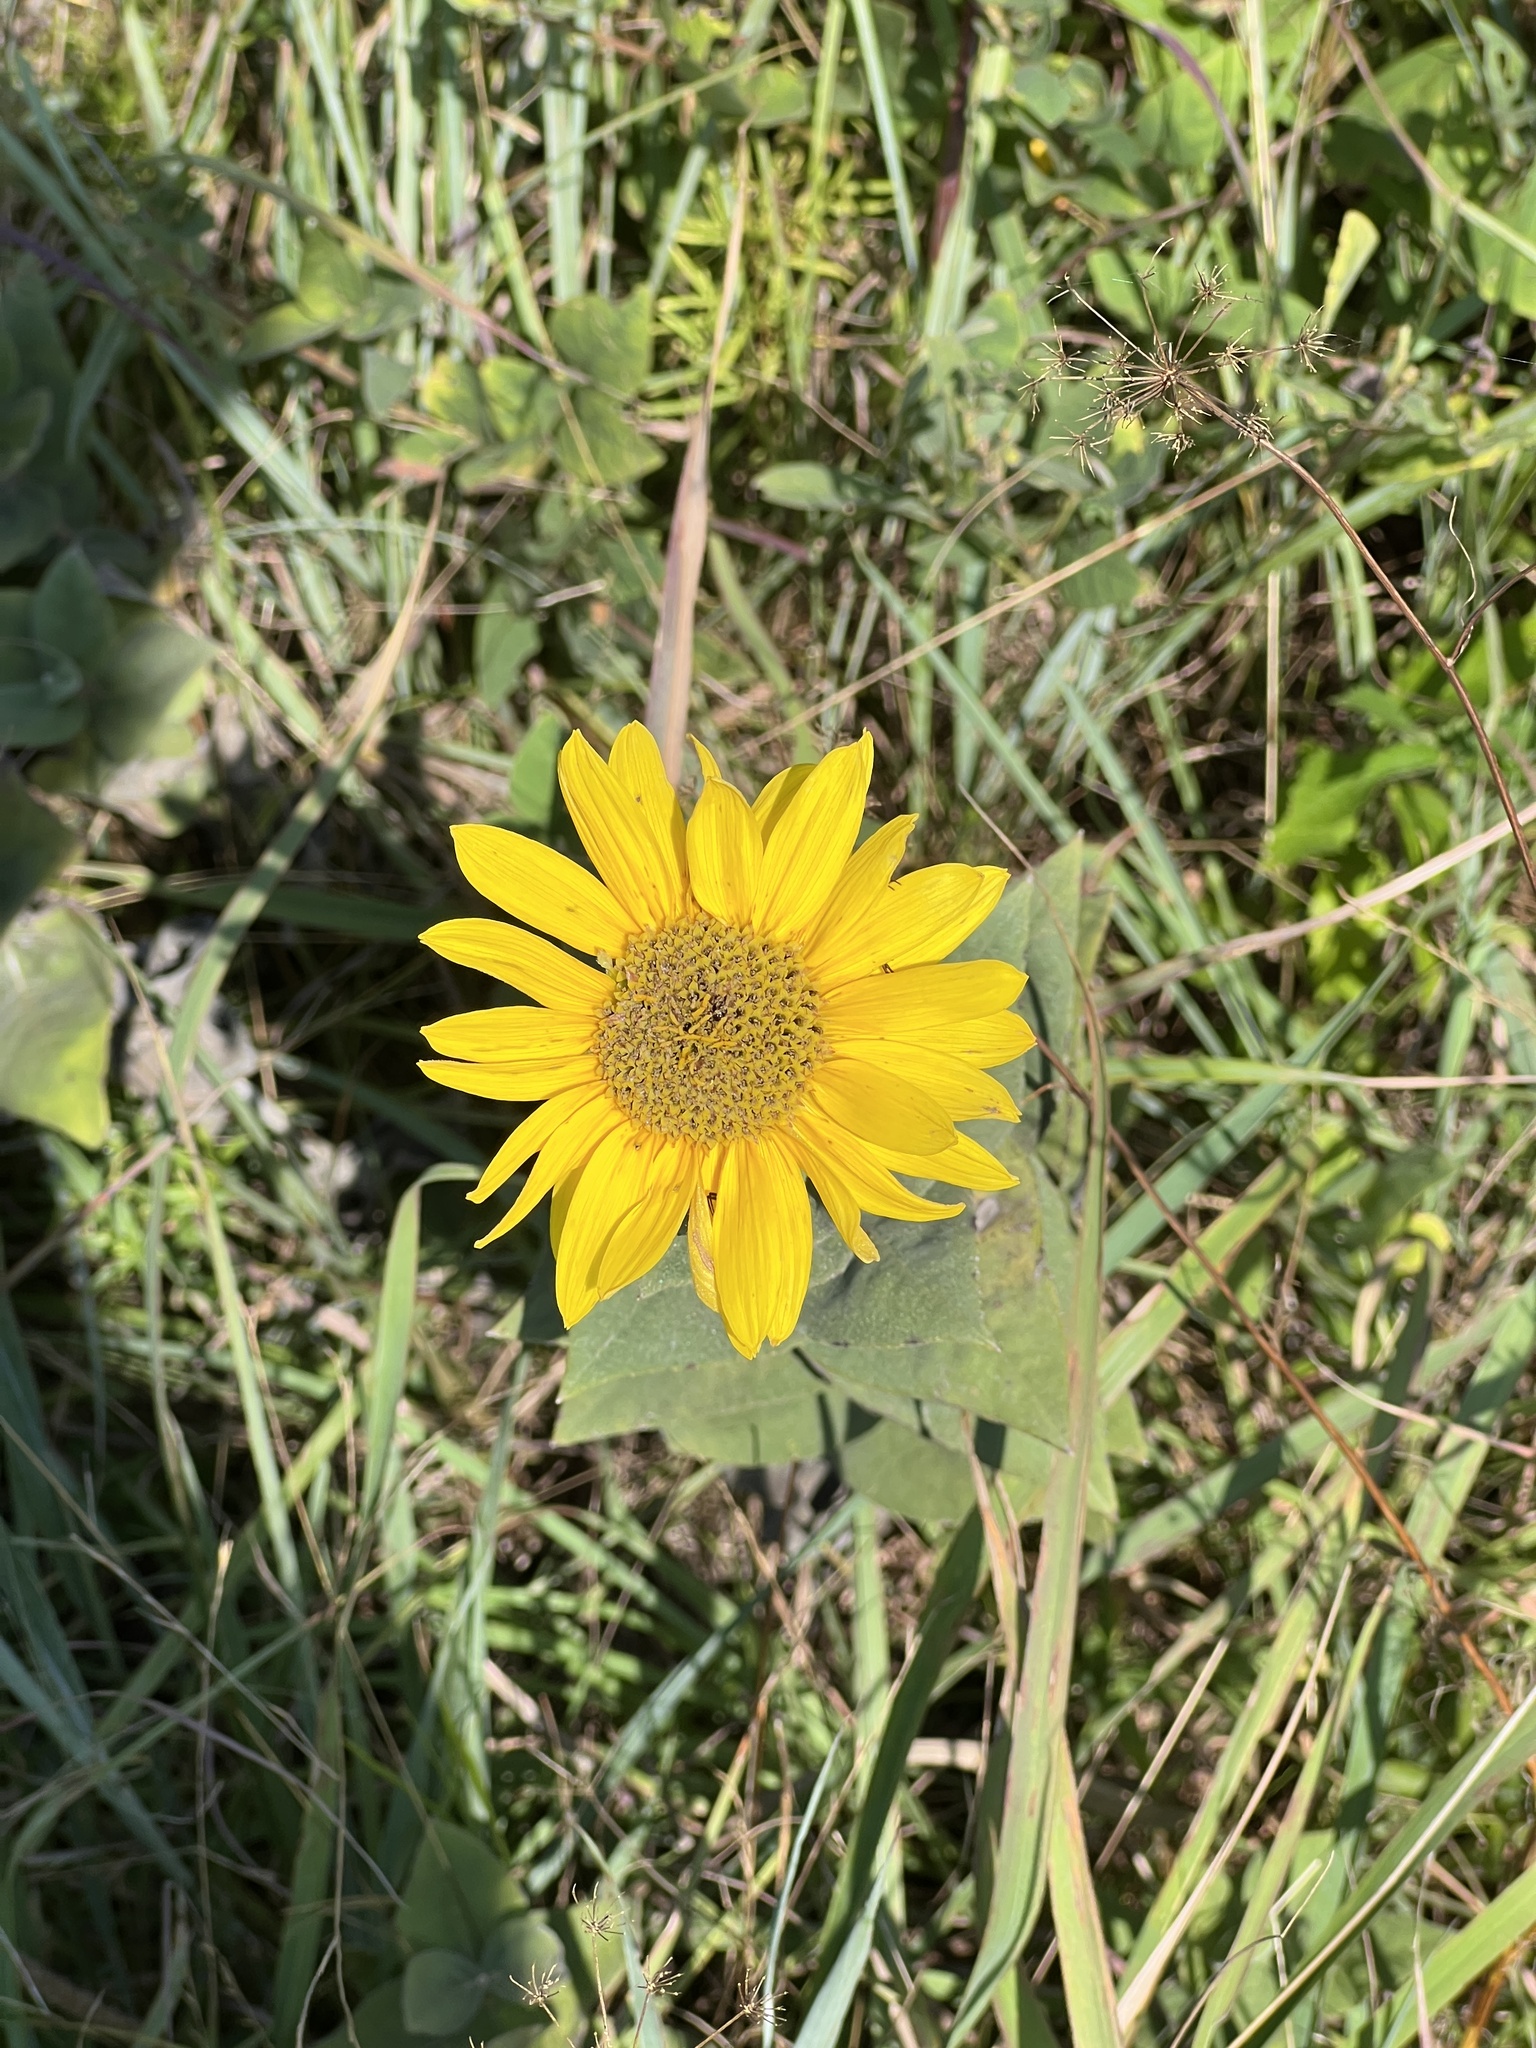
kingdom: Plantae
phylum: Tracheophyta
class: Magnoliopsida
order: Asterales
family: Asteraceae
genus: Helianthus
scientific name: Helianthus mollis
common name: Ashy sunflower
